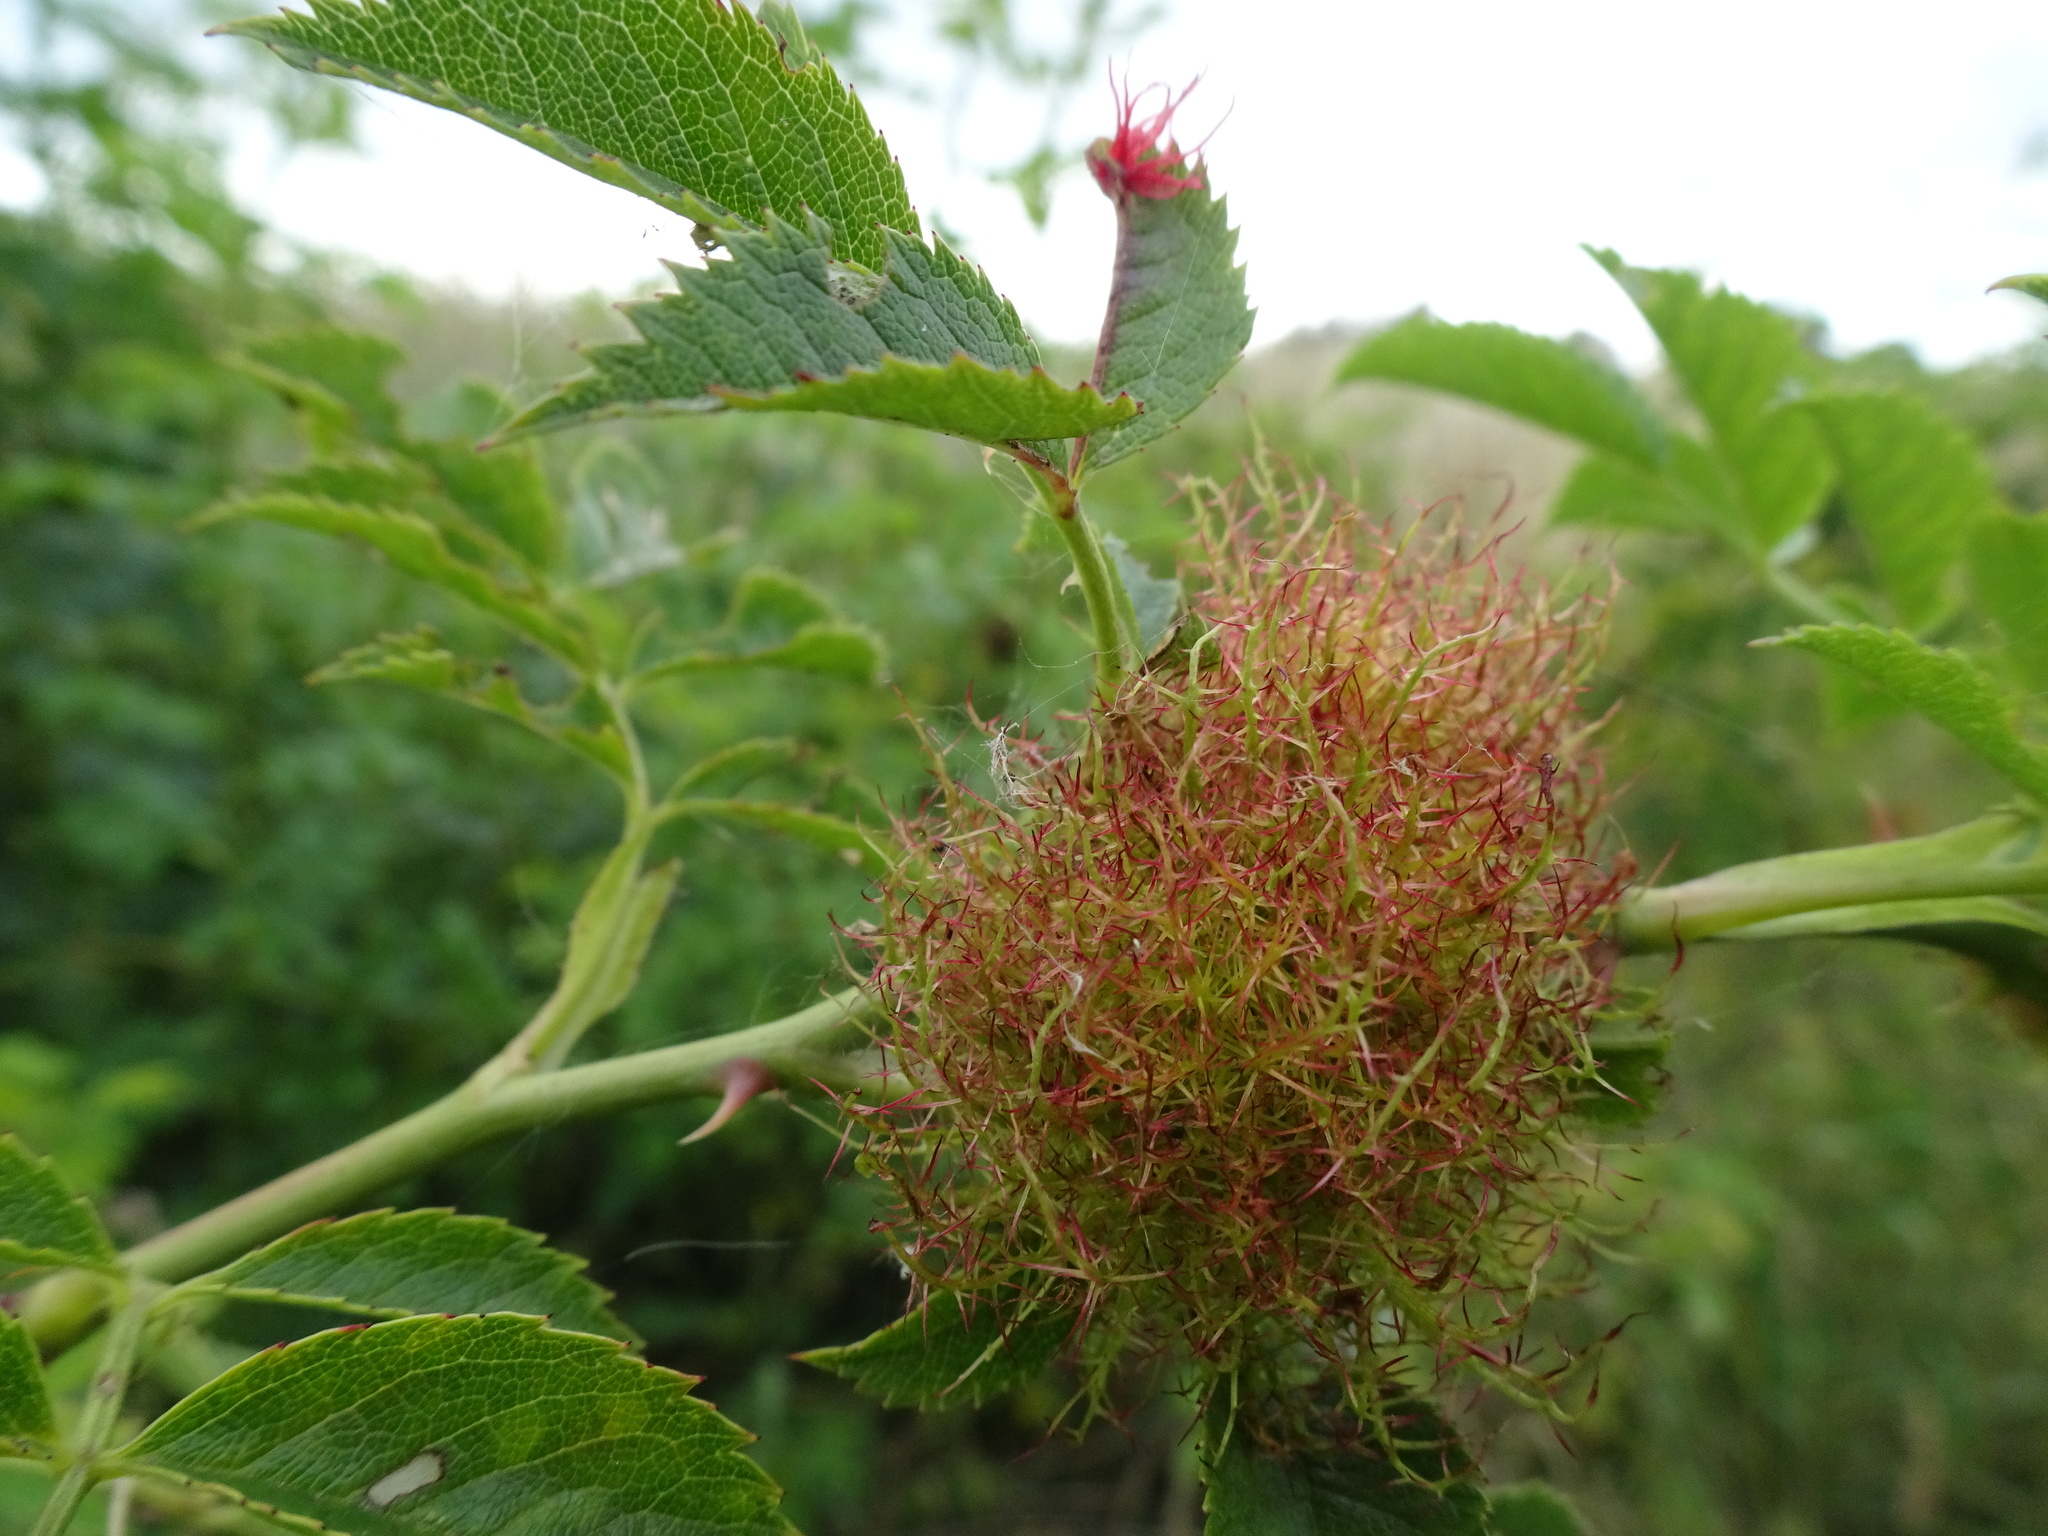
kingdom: Animalia
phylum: Arthropoda
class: Insecta
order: Hymenoptera
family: Cynipidae
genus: Diplolepis
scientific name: Diplolepis rosae
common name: Bedeguar gall
